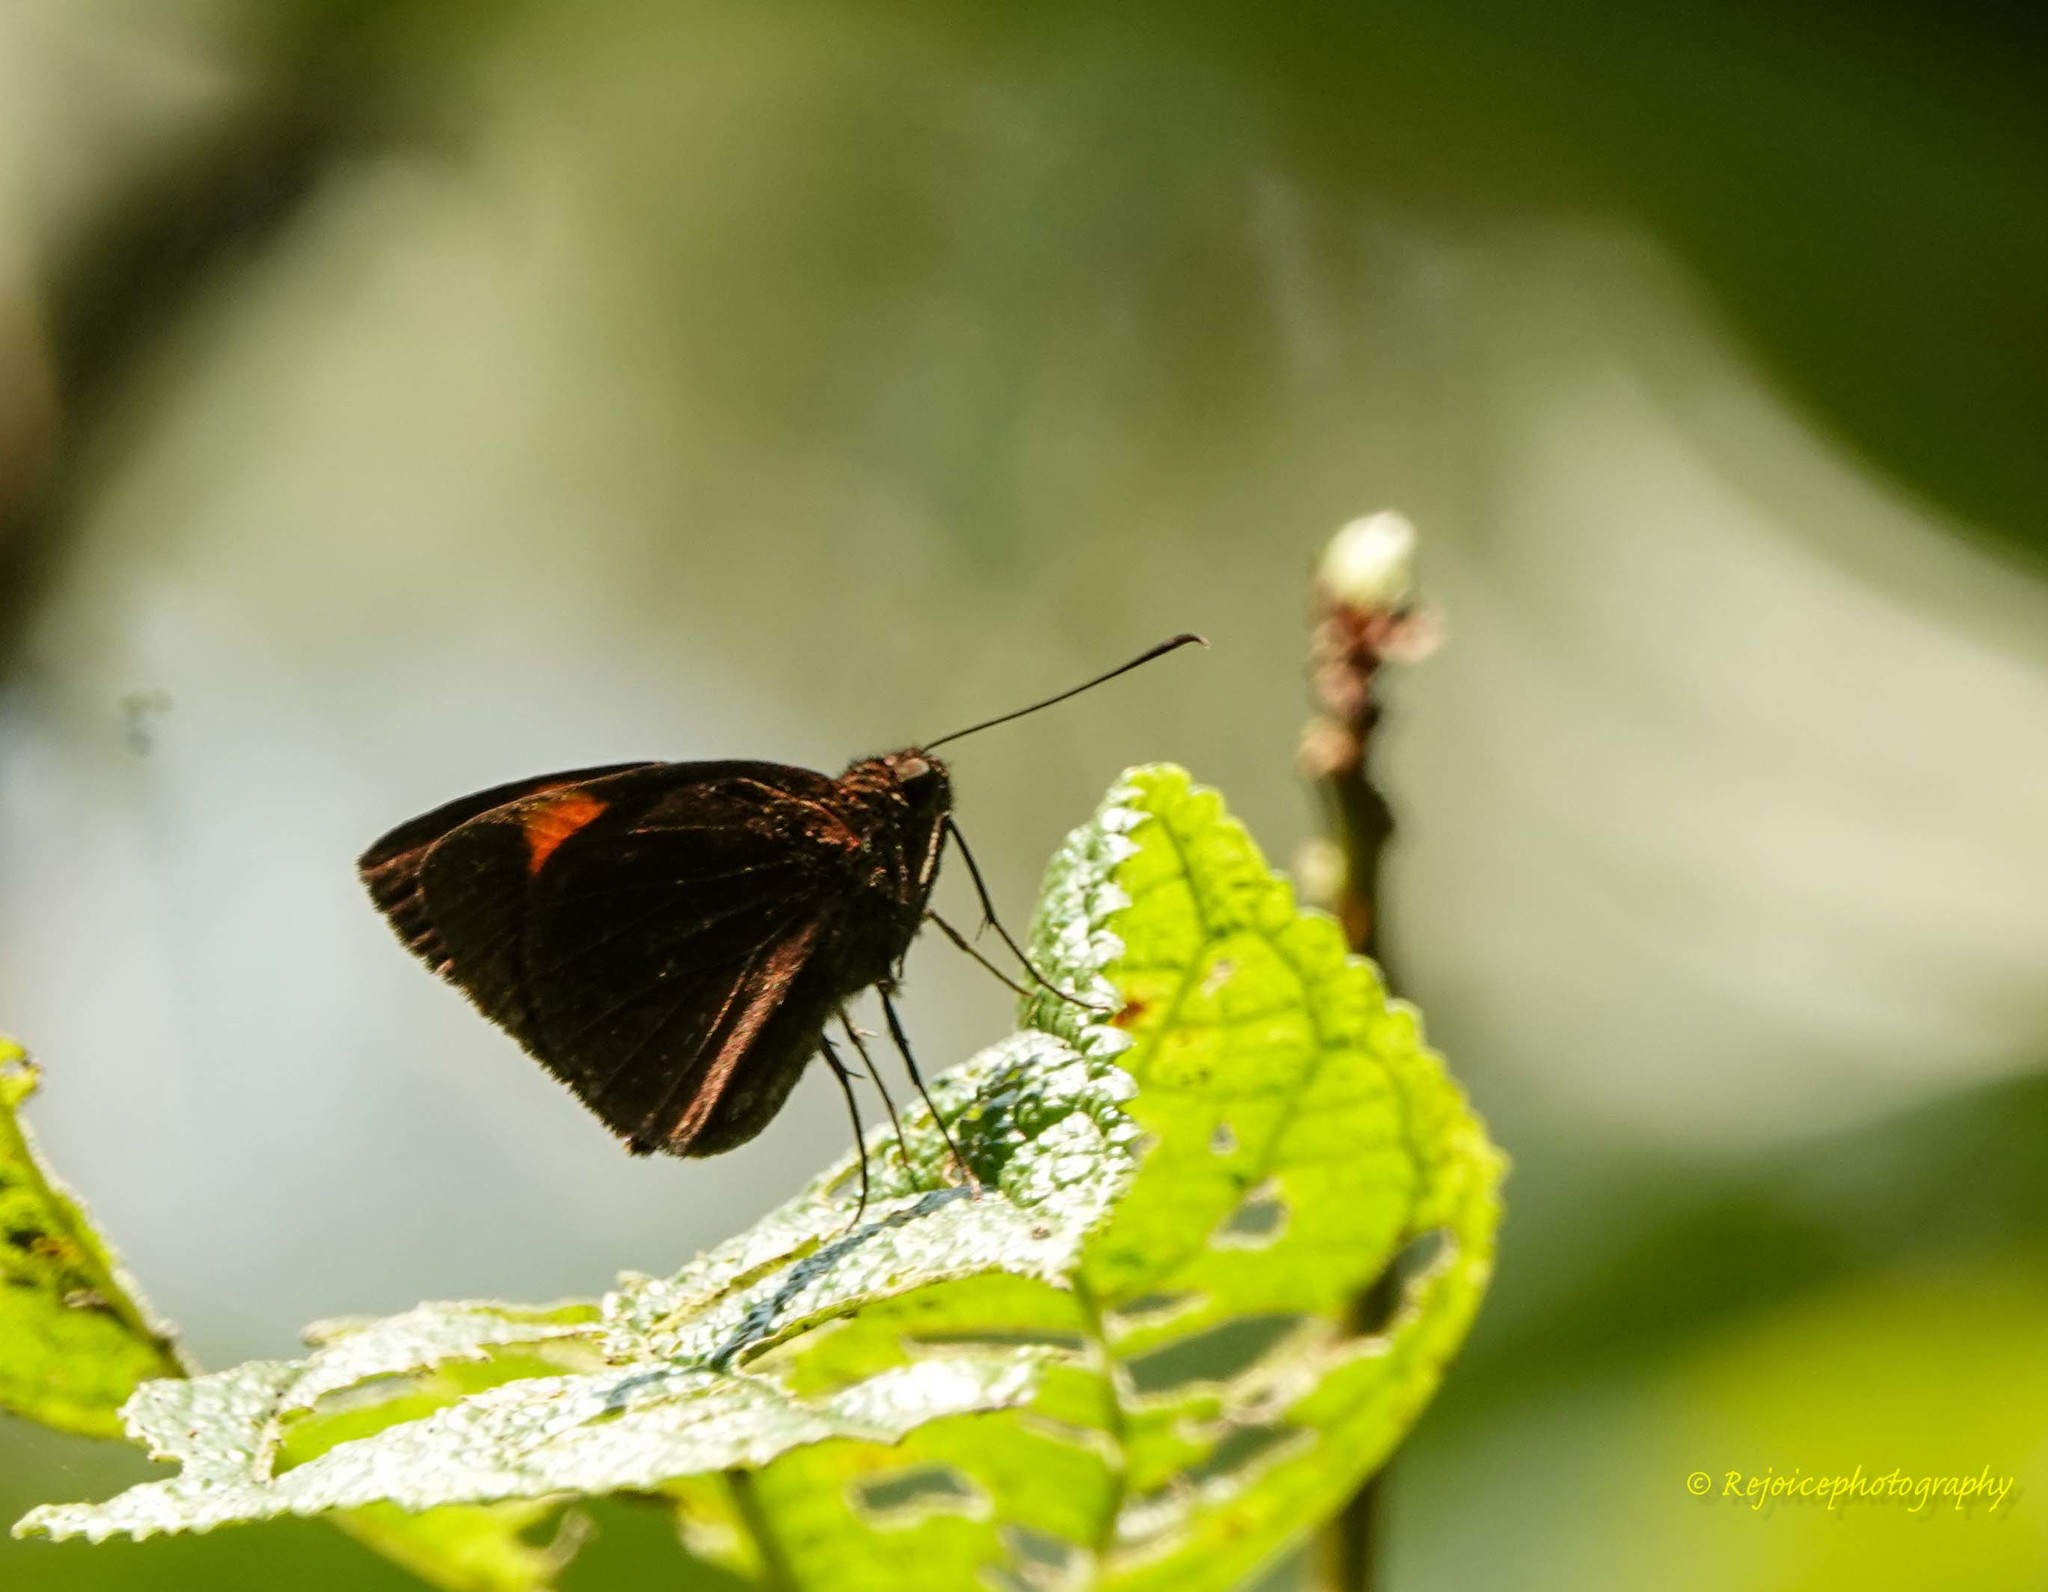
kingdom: Animalia
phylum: Arthropoda
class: Insecta
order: Lepidoptera
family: Hesperiidae
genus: Koruthaialos
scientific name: Koruthaialos sindu
